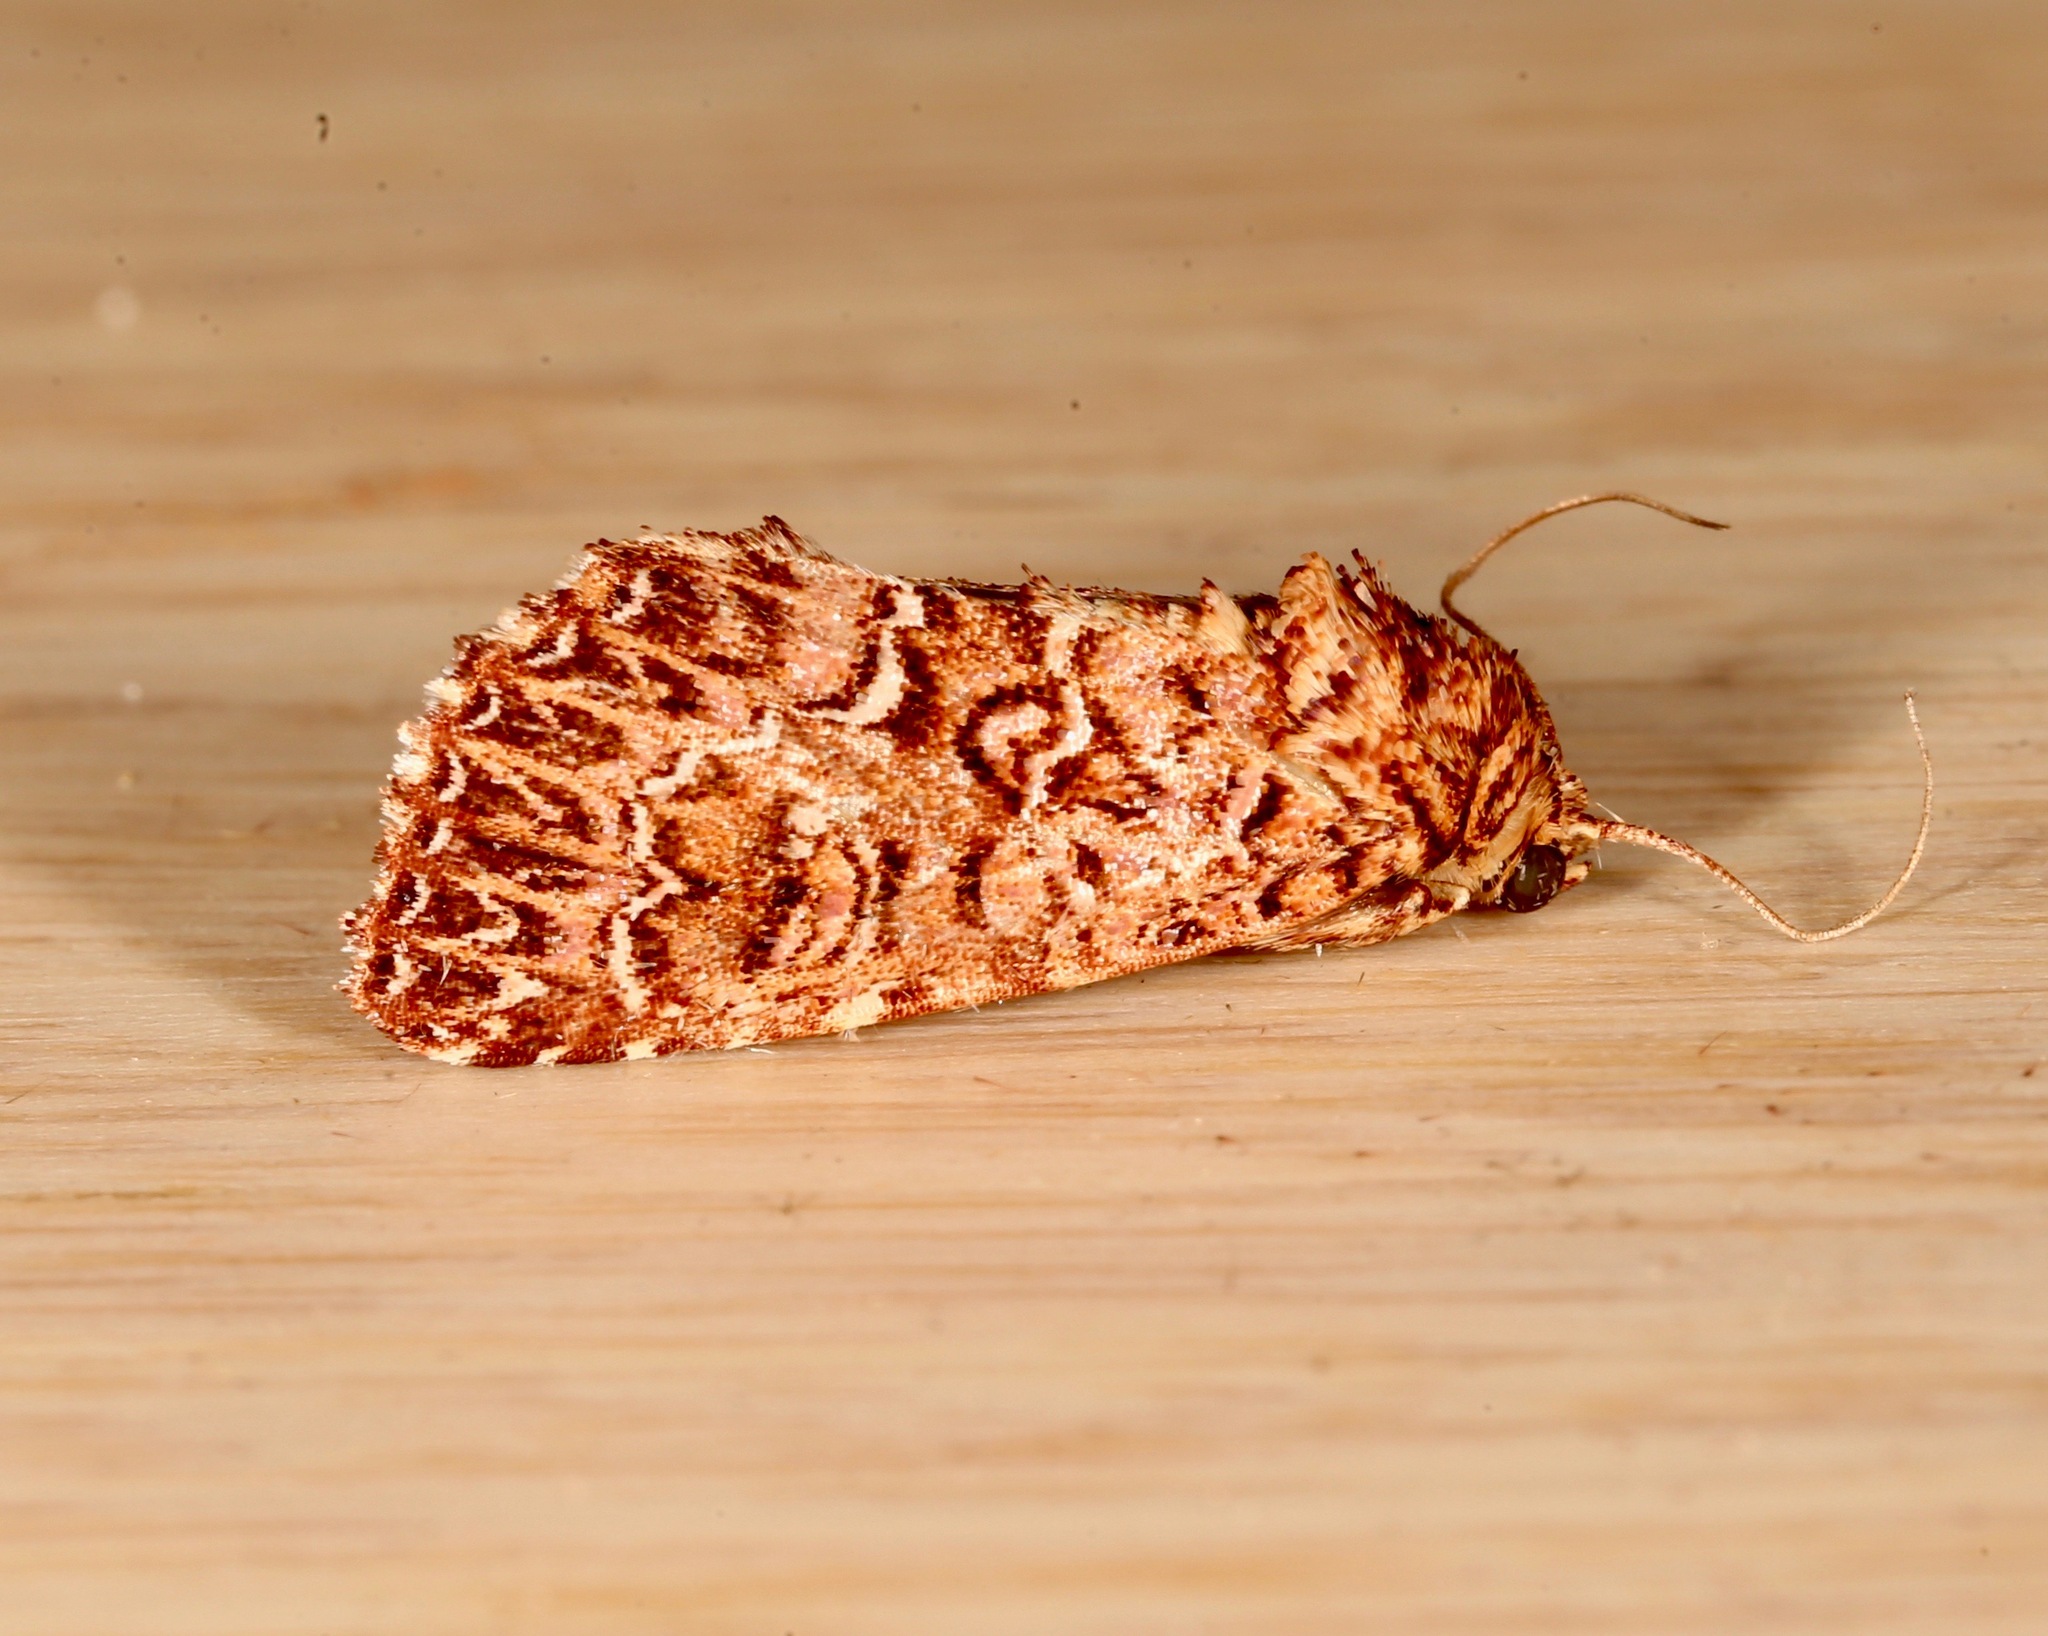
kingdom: Animalia
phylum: Arthropoda
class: Insecta
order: Lepidoptera
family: Noctuidae
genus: Callopistria
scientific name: Callopistria granitosa
